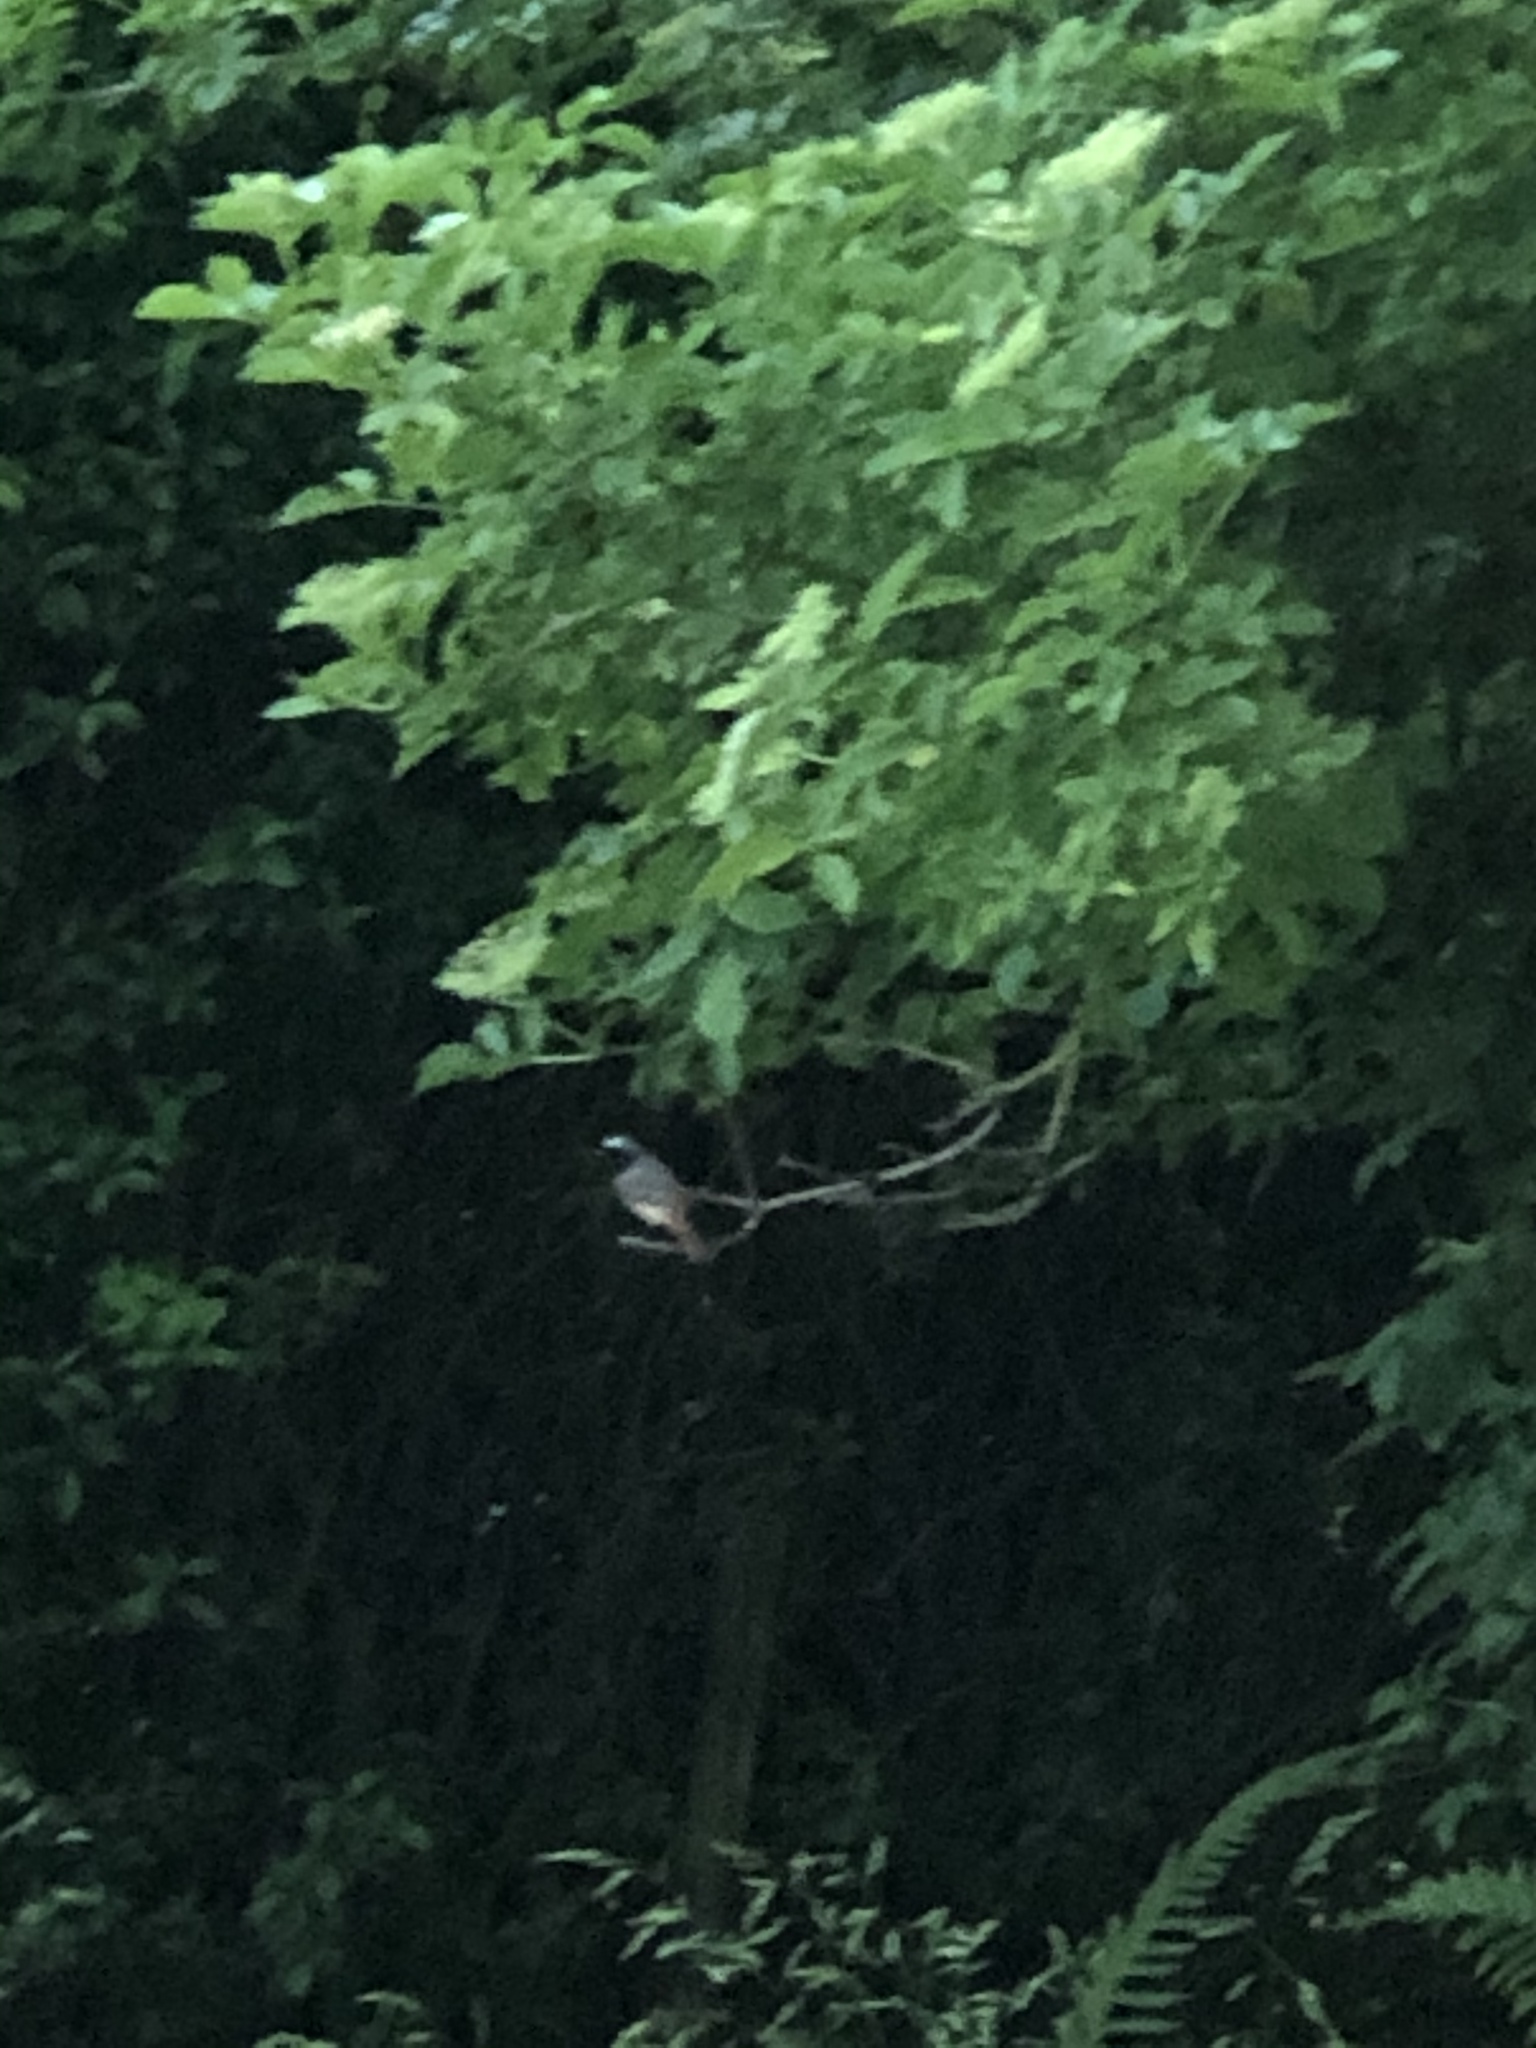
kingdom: Animalia
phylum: Chordata
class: Aves
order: Passeriformes
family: Muscicapidae
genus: Phoenicurus
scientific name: Phoenicurus phoenicurus
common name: Common redstart
